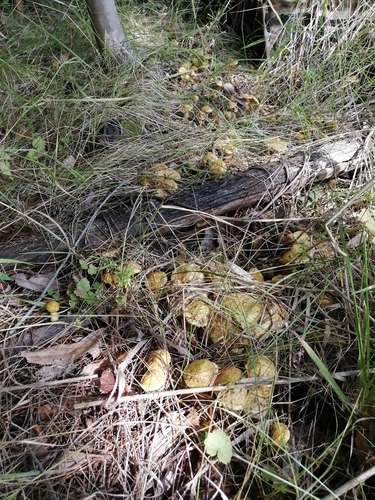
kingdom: Fungi
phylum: Basidiomycota
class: Agaricomycetes
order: Boletales
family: Suillaceae
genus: Suillus
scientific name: Suillus americanus
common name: Chicken fat mushroom
